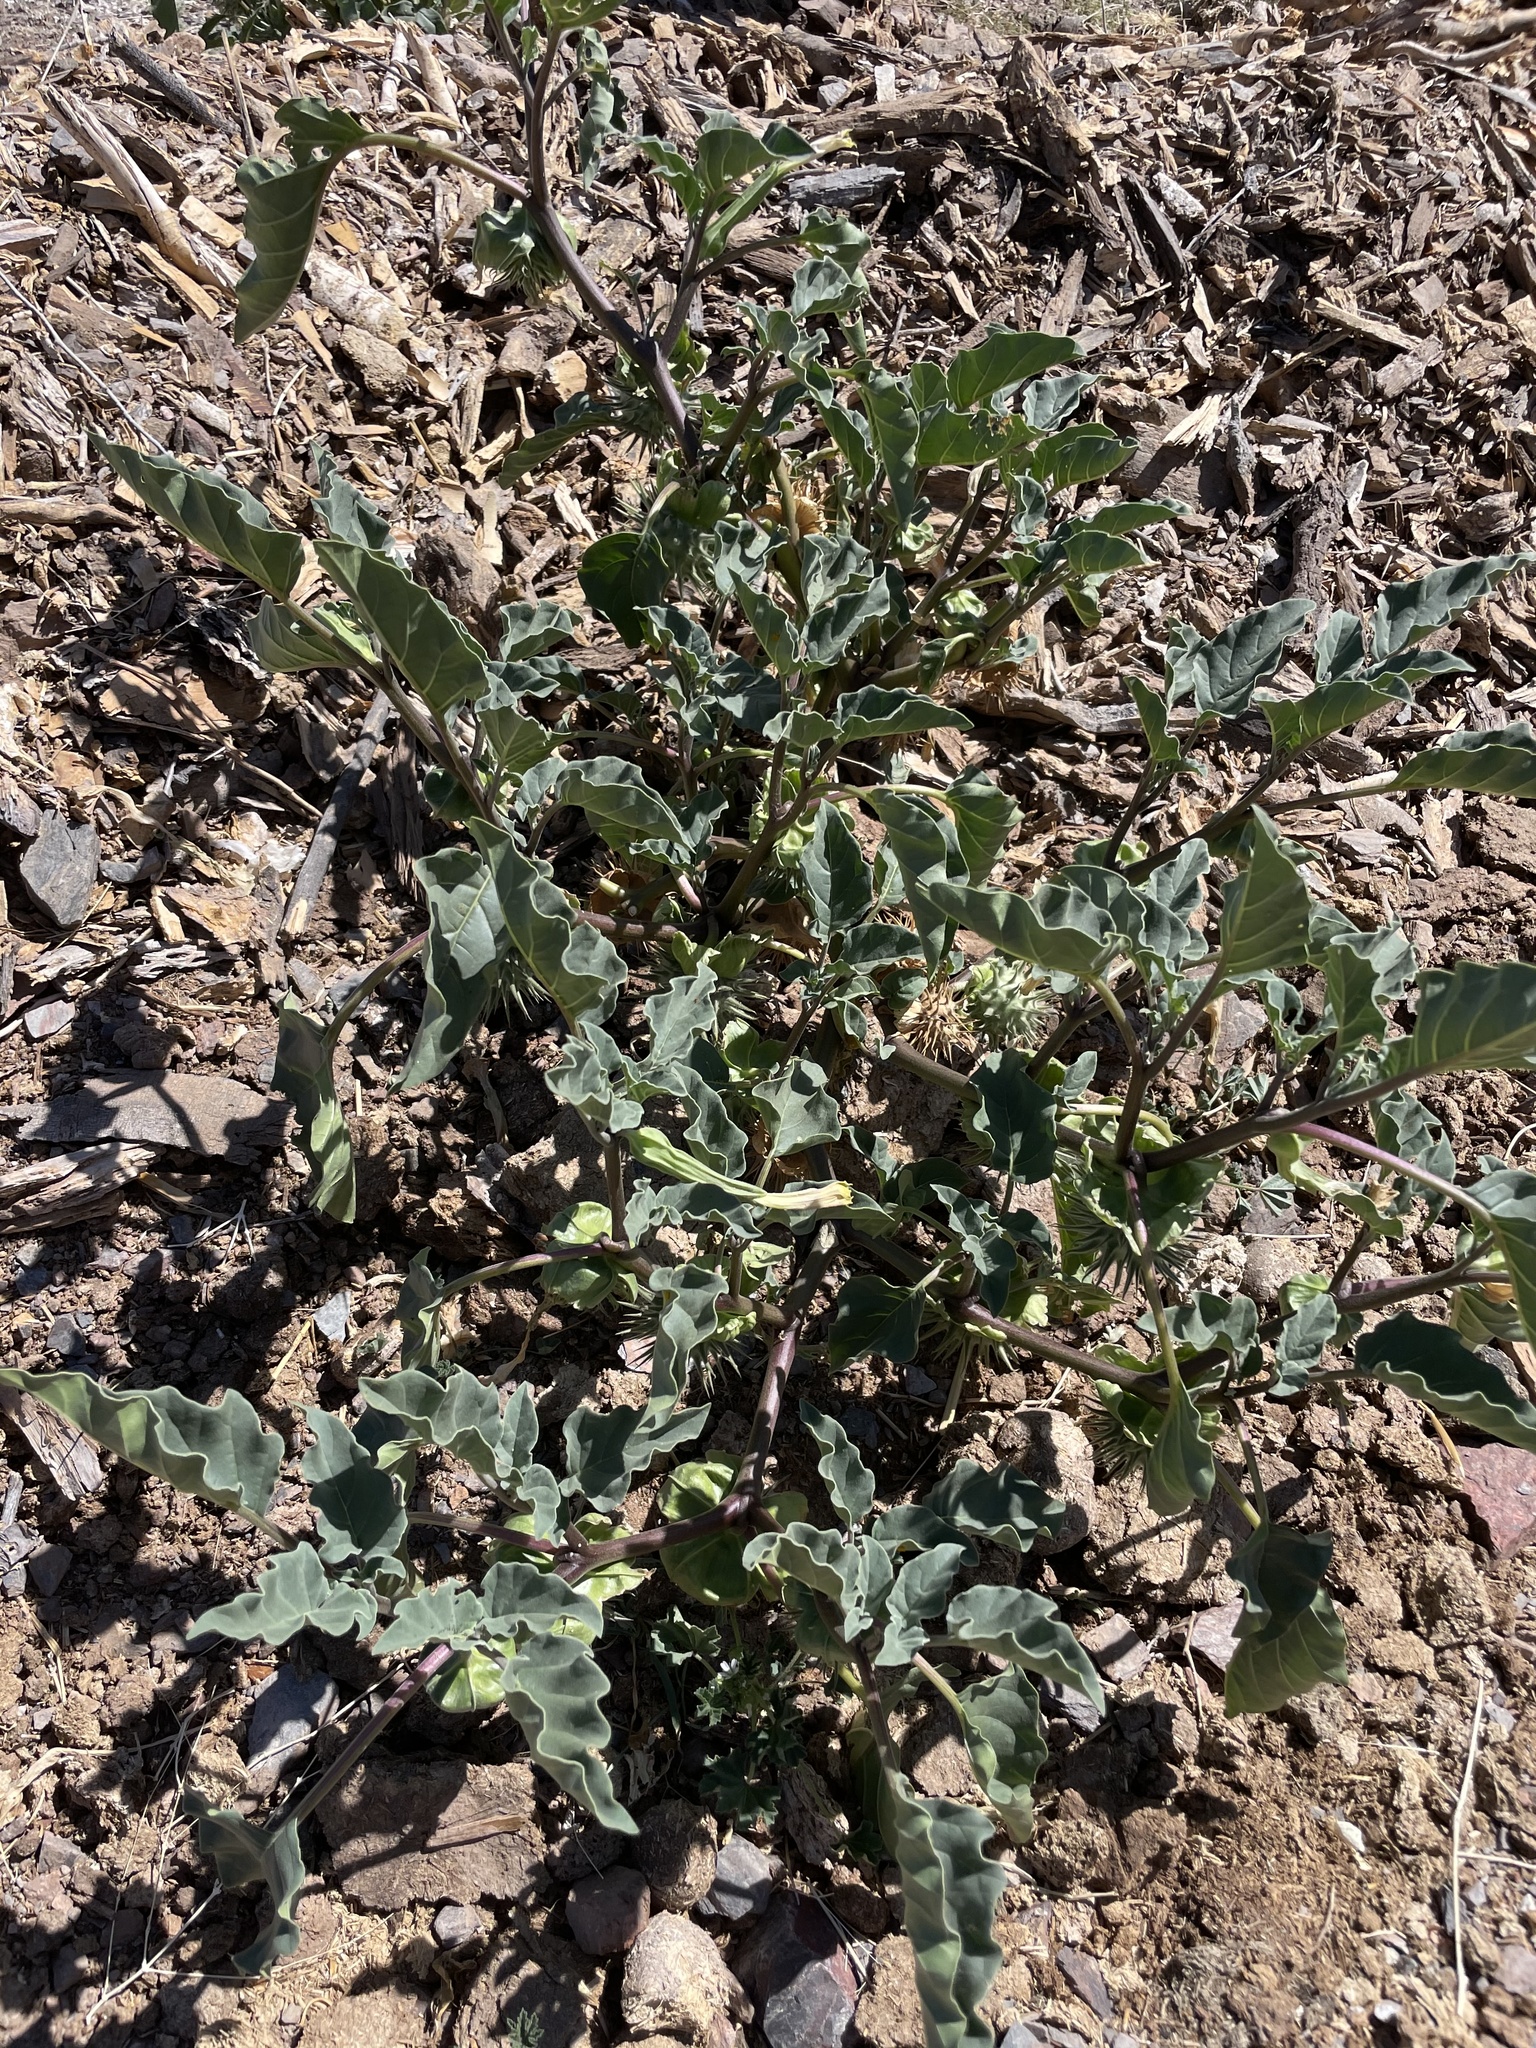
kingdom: Plantae
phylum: Tracheophyta
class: Magnoliopsida
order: Solanales
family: Solanaceae
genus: Datura
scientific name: Datura discolor
